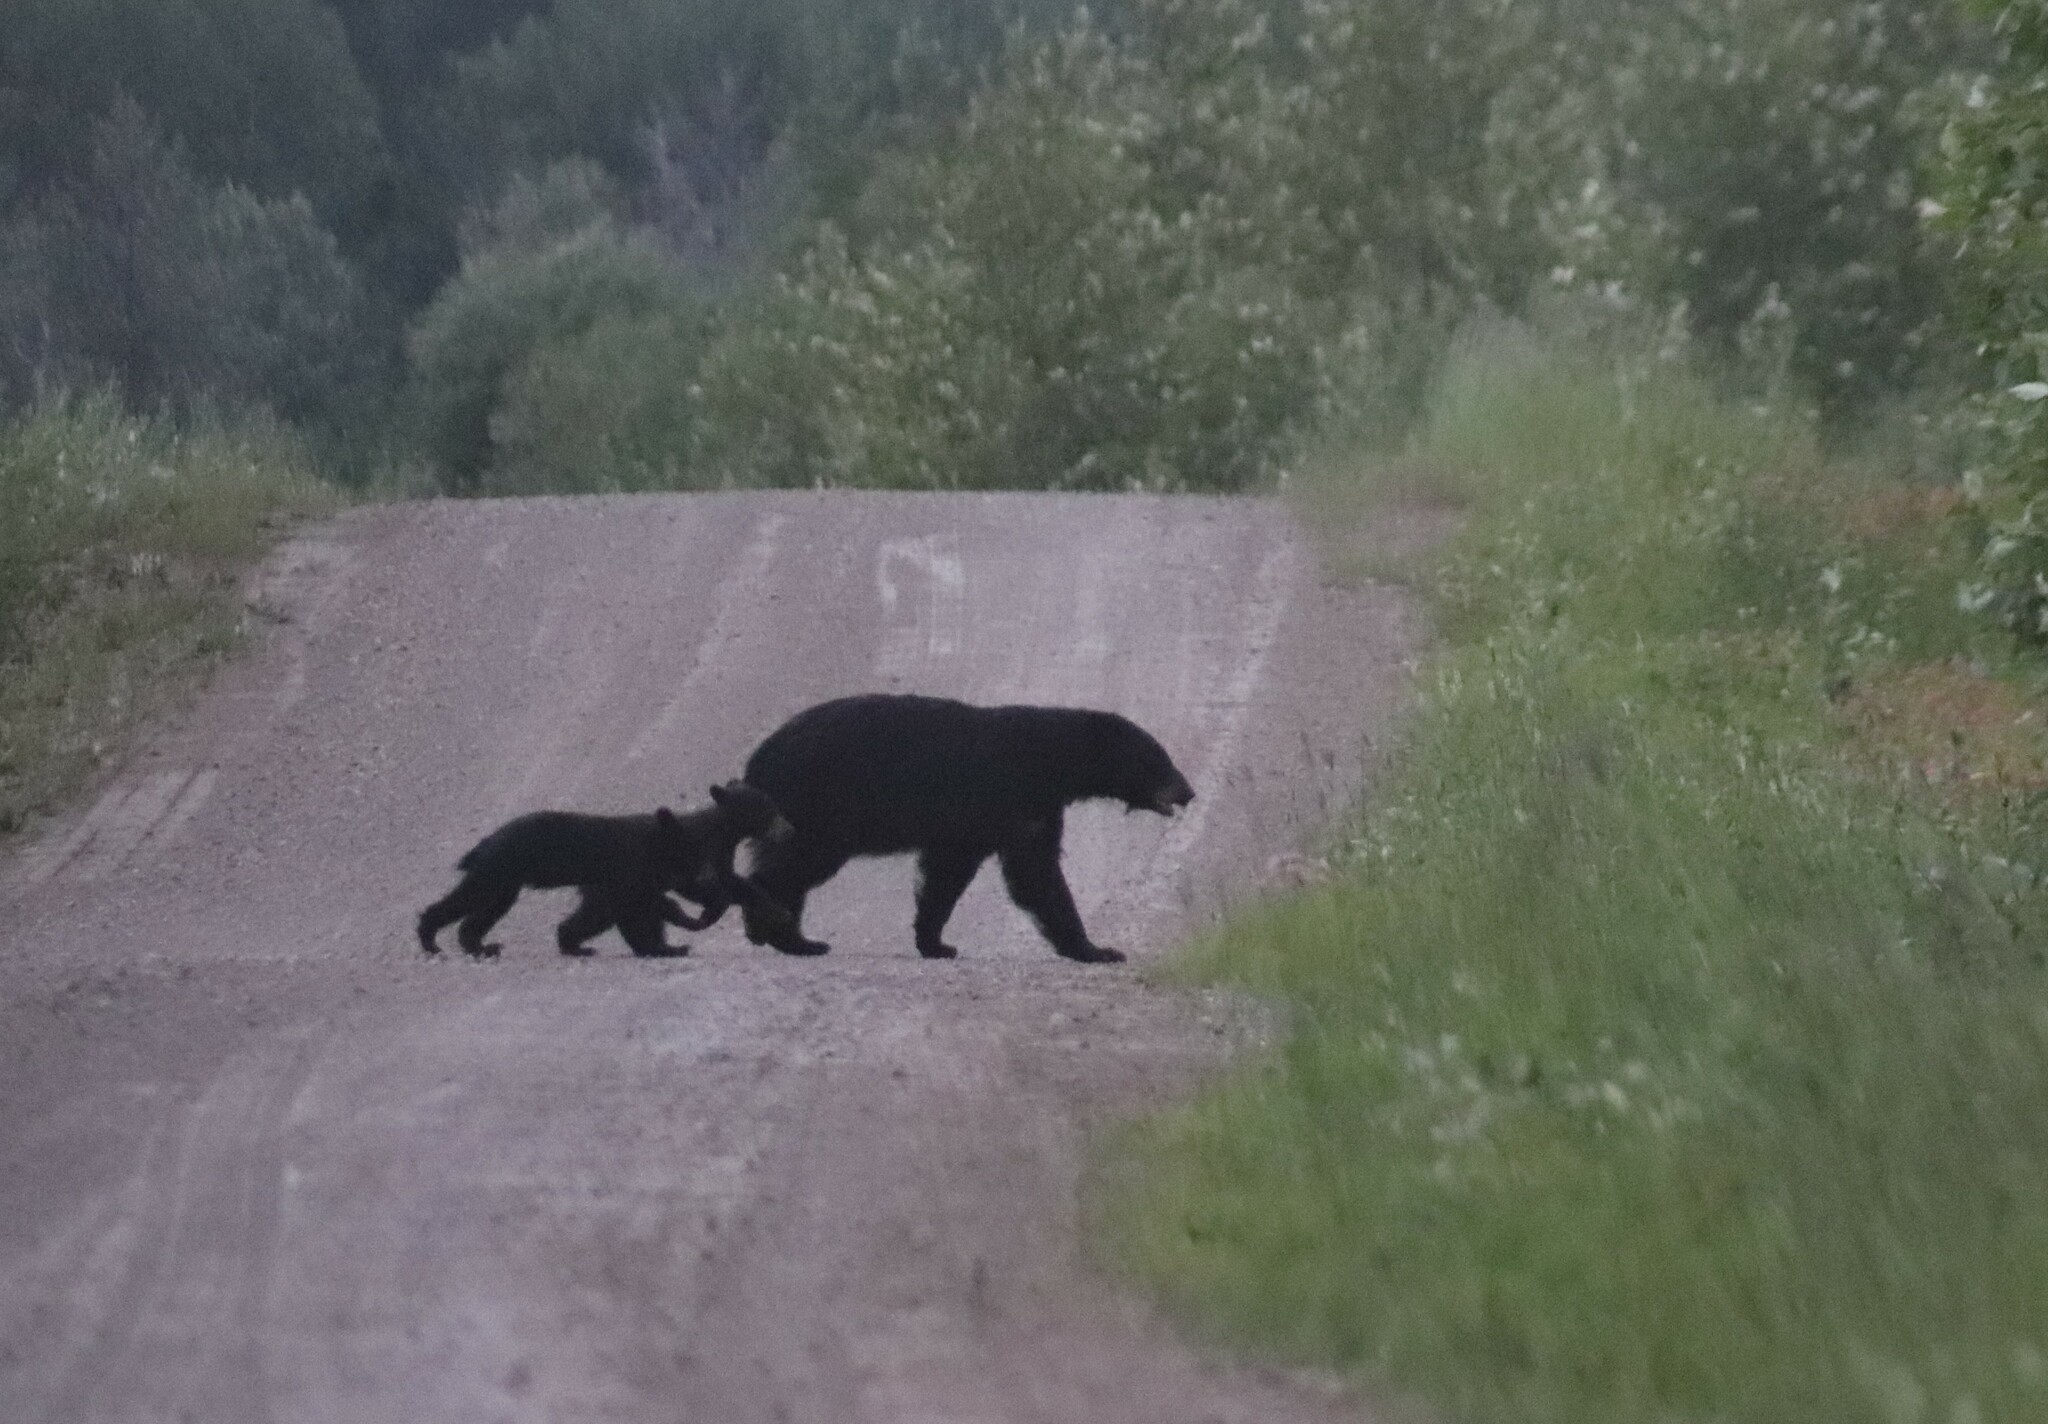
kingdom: Animalia
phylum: Chordata
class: Mammalia
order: Carnivora
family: Ursidae
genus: Ursus
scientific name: Ursus americanus
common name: American black bear
